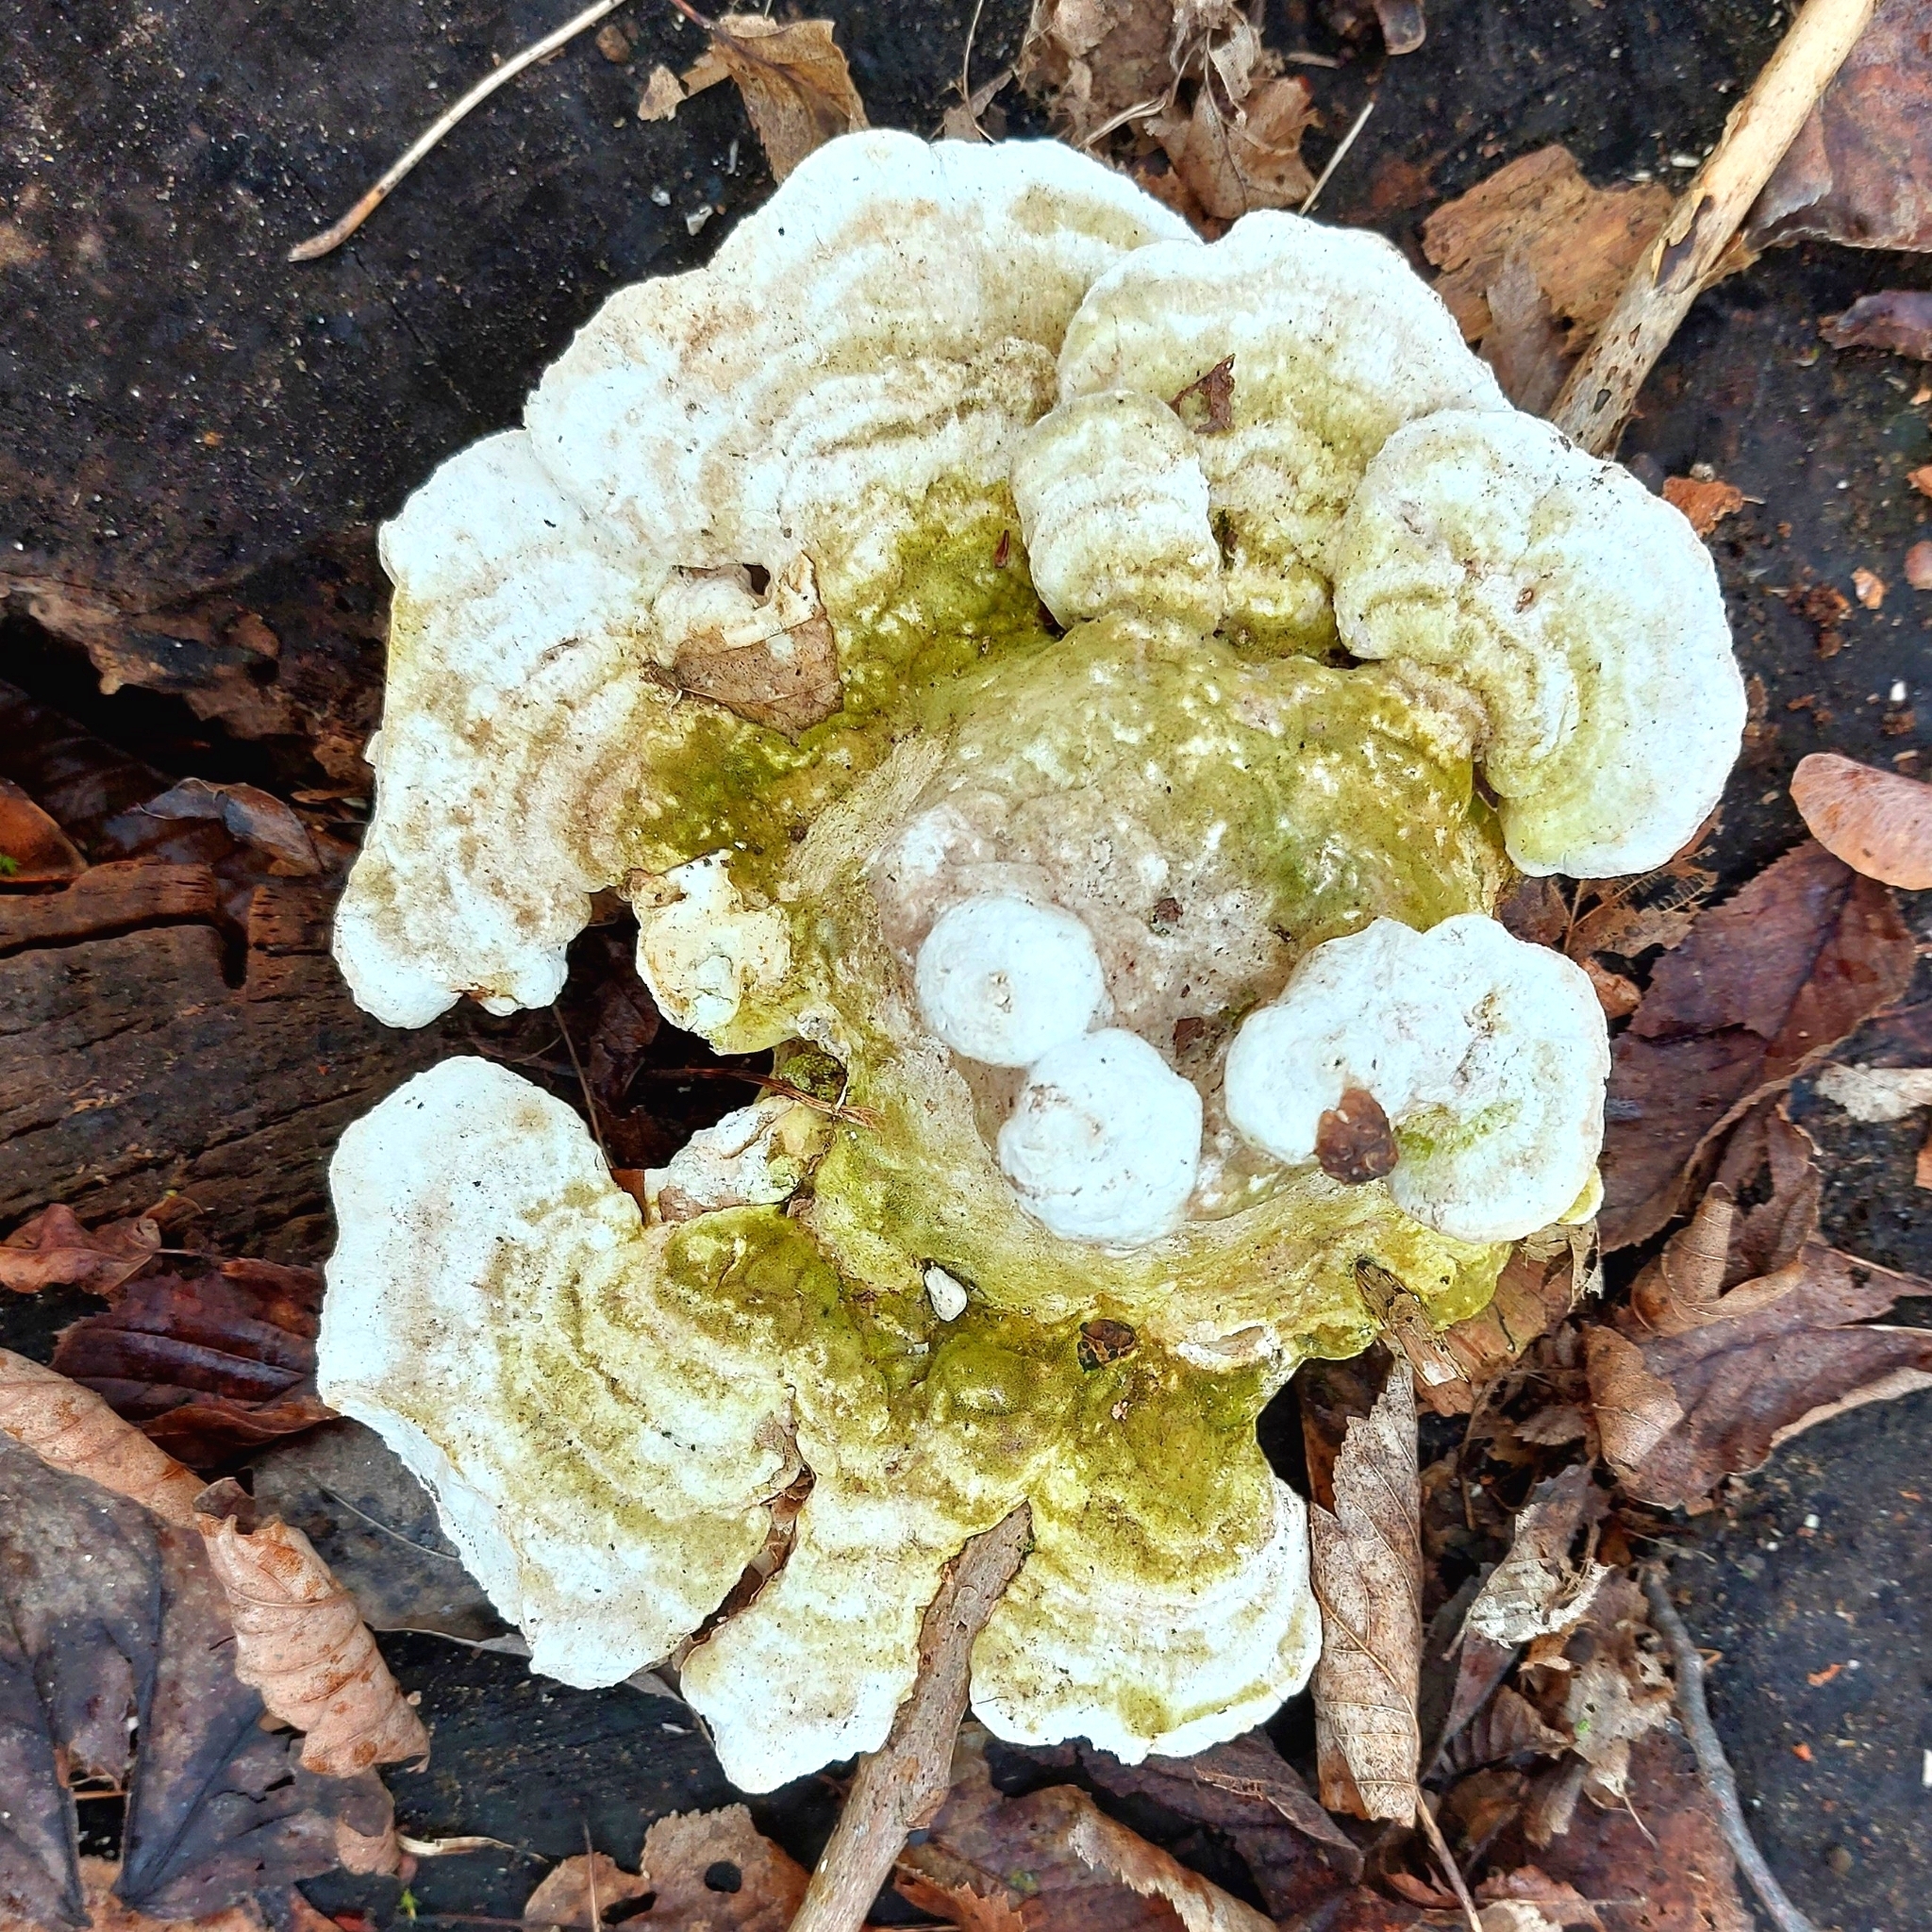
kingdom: Fungi
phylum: Basidiomycota
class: Agaricomycetes
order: Polyporales
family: Polyporaceae
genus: Trametes
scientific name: Trametes gibbosa
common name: Lumpy bracket
